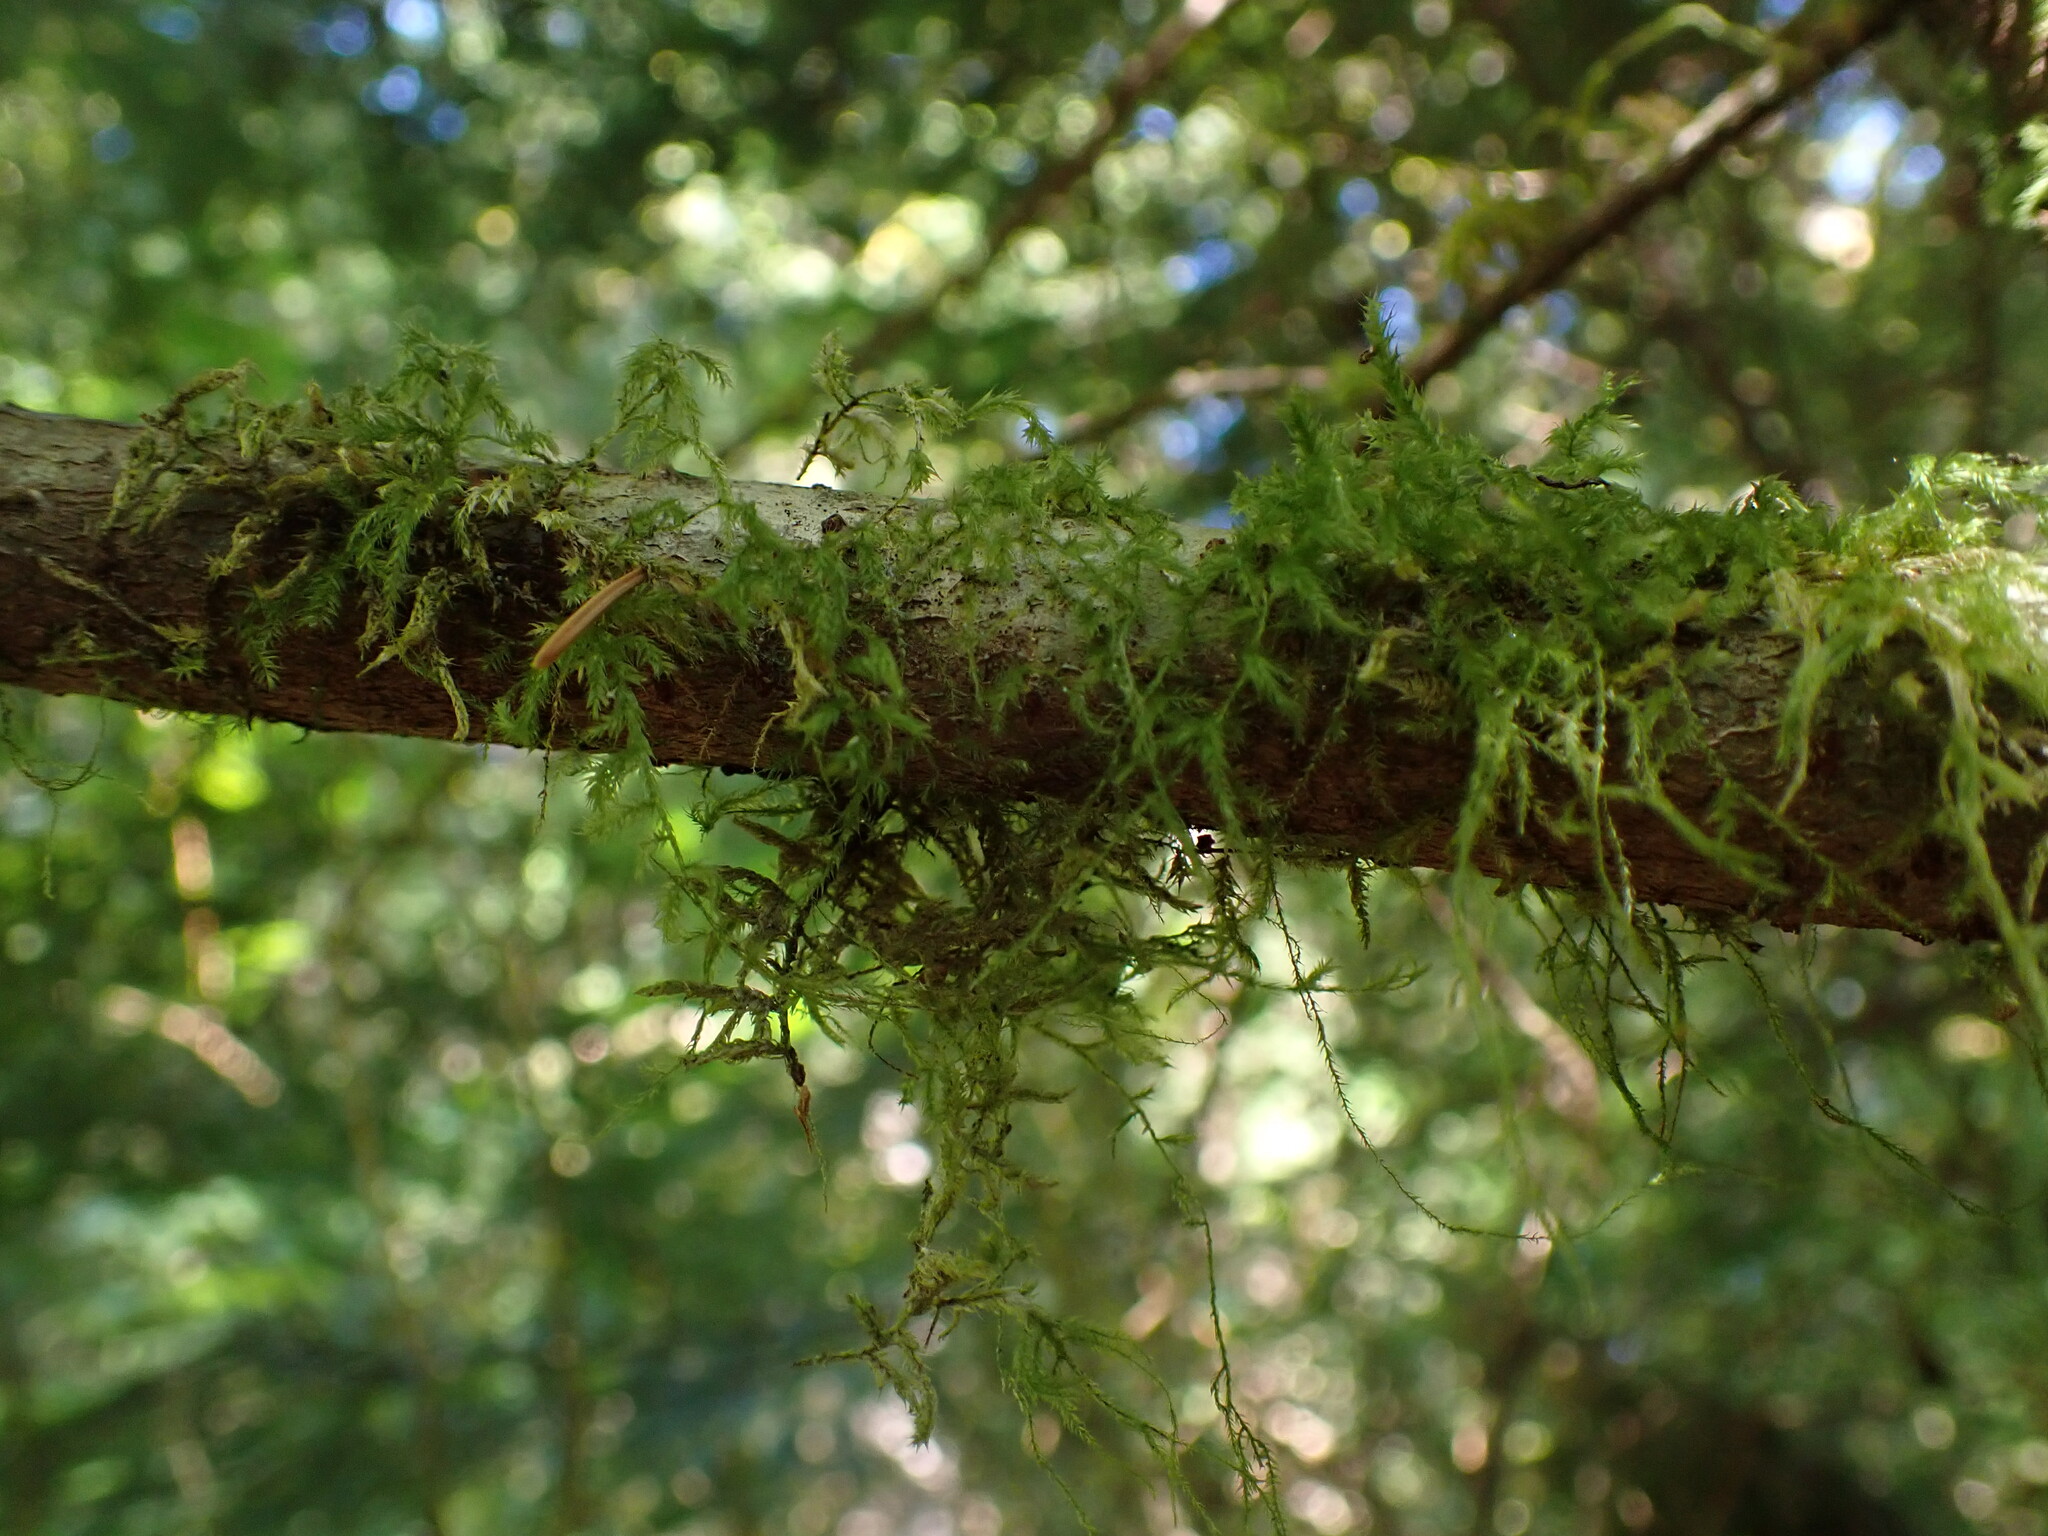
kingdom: Plantae
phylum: Bryophyta
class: Bryopsida
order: Hypnales
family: Lembophyllaceae
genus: Pseudisothecium
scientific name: Pseudisothecium stoloniferum
